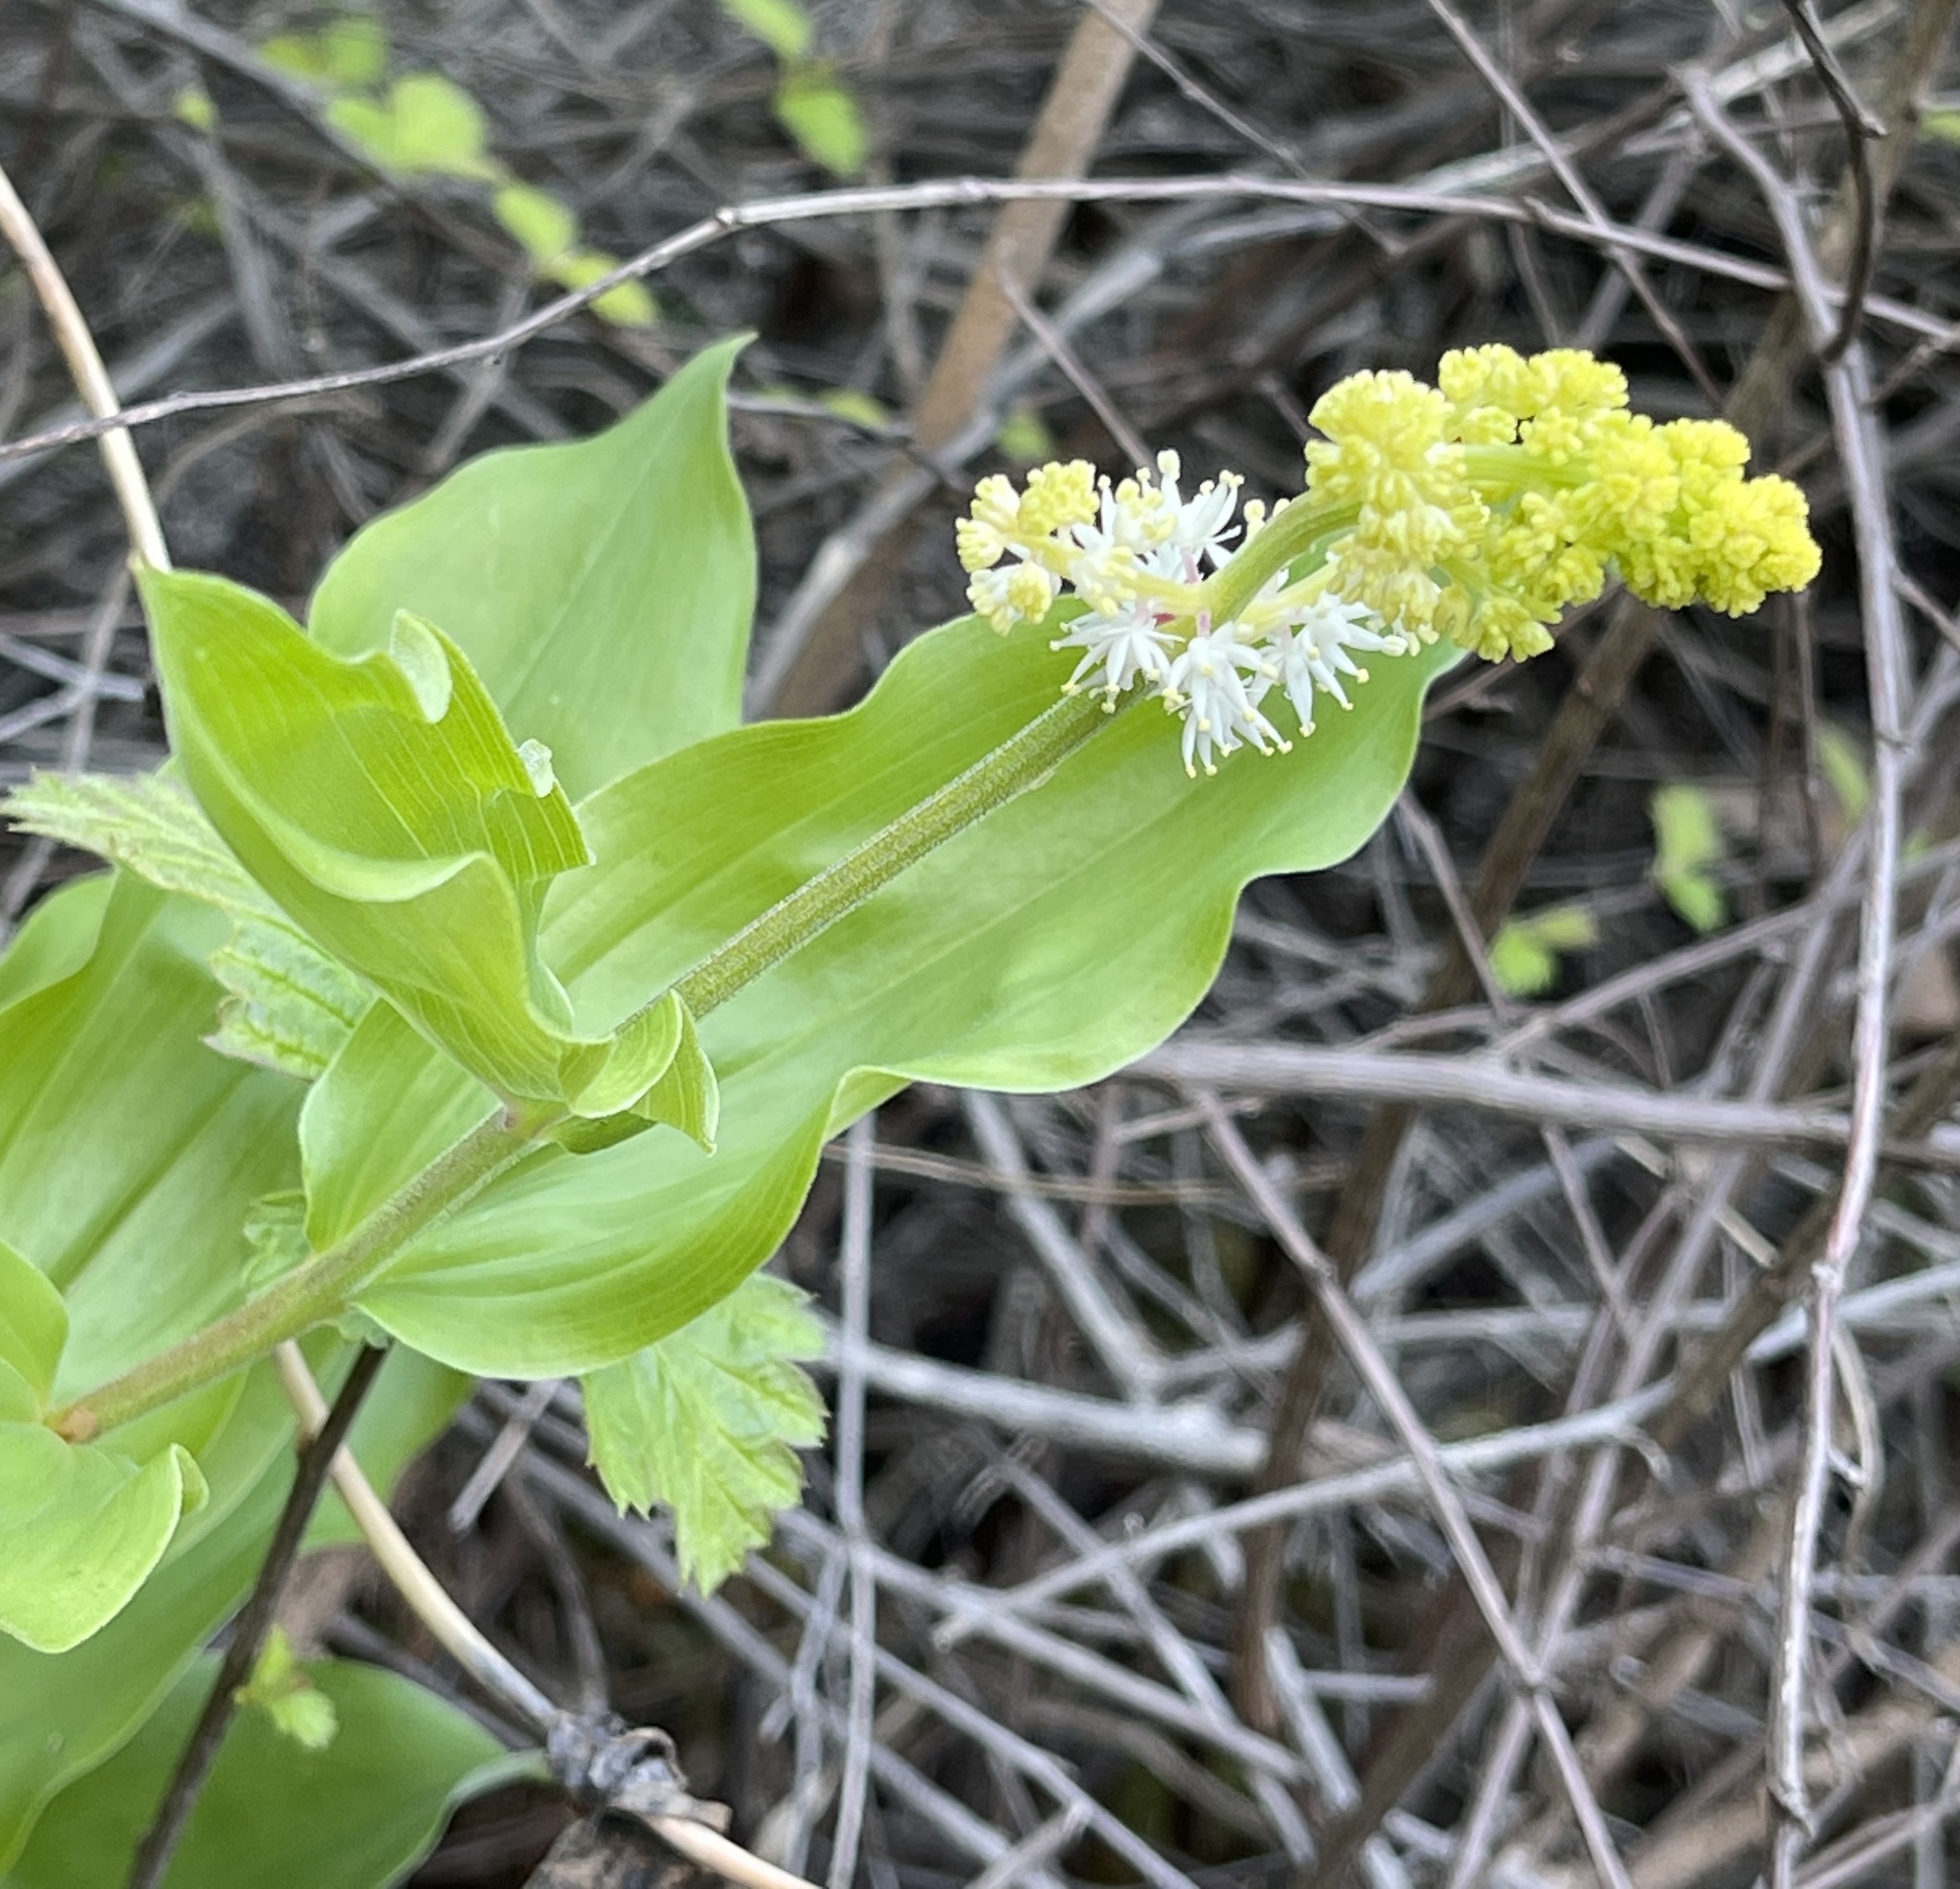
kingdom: Plantae
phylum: Tracheophyta
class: Liliopsida
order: Asparagales
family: Asparagaceae
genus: Maianthemum
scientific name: Maianthemum racemosum
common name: False spikenard
